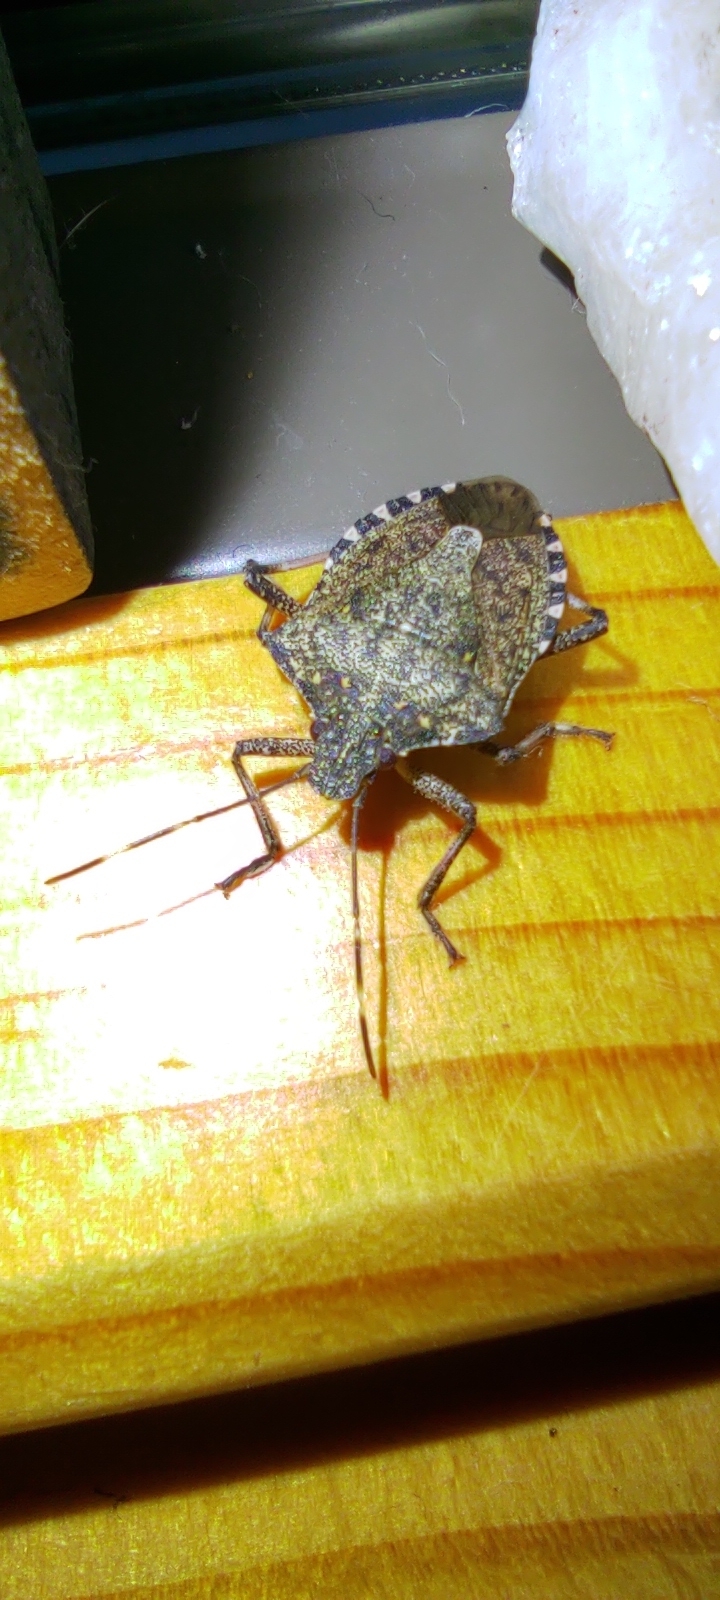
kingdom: Animalia
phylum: Arthropoda
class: Insecta
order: Hemiptera
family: Pentatomidae
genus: Halyomorpha
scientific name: Halyomorpha halys
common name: Brown marmorated stink bug
